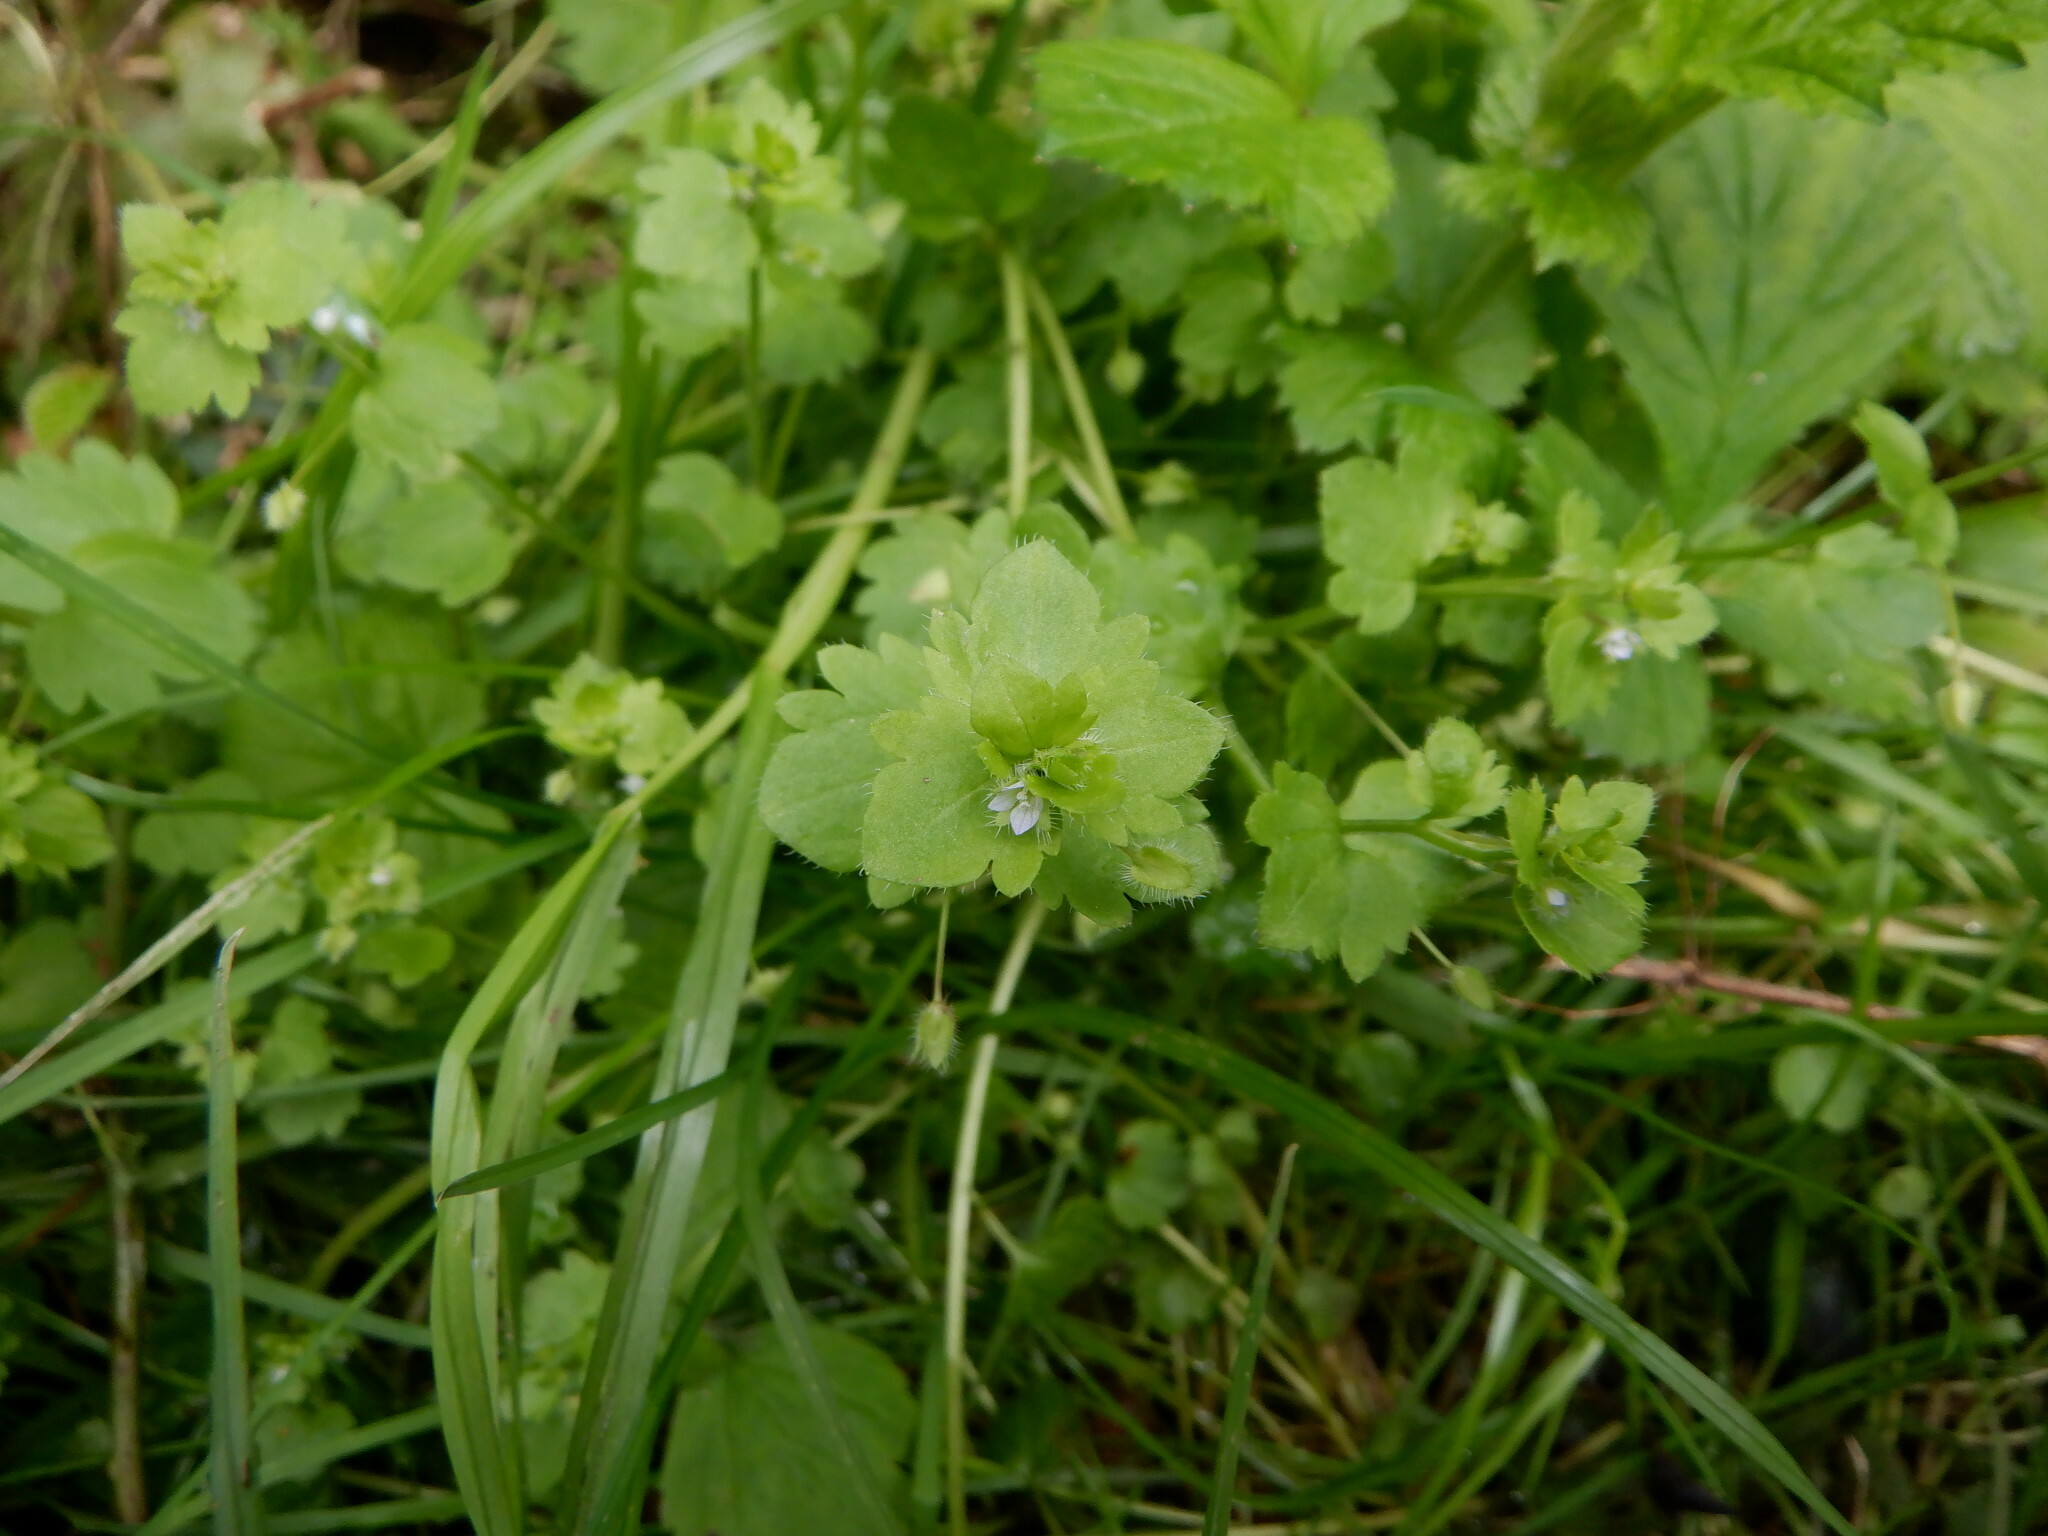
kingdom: Plantae
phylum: Tracheophyta
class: Magnoliopsida
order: Lamiales
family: Plantaginaceae
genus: Veronica
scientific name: Veronica sublobata
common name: False ivy-leaved speedwell
